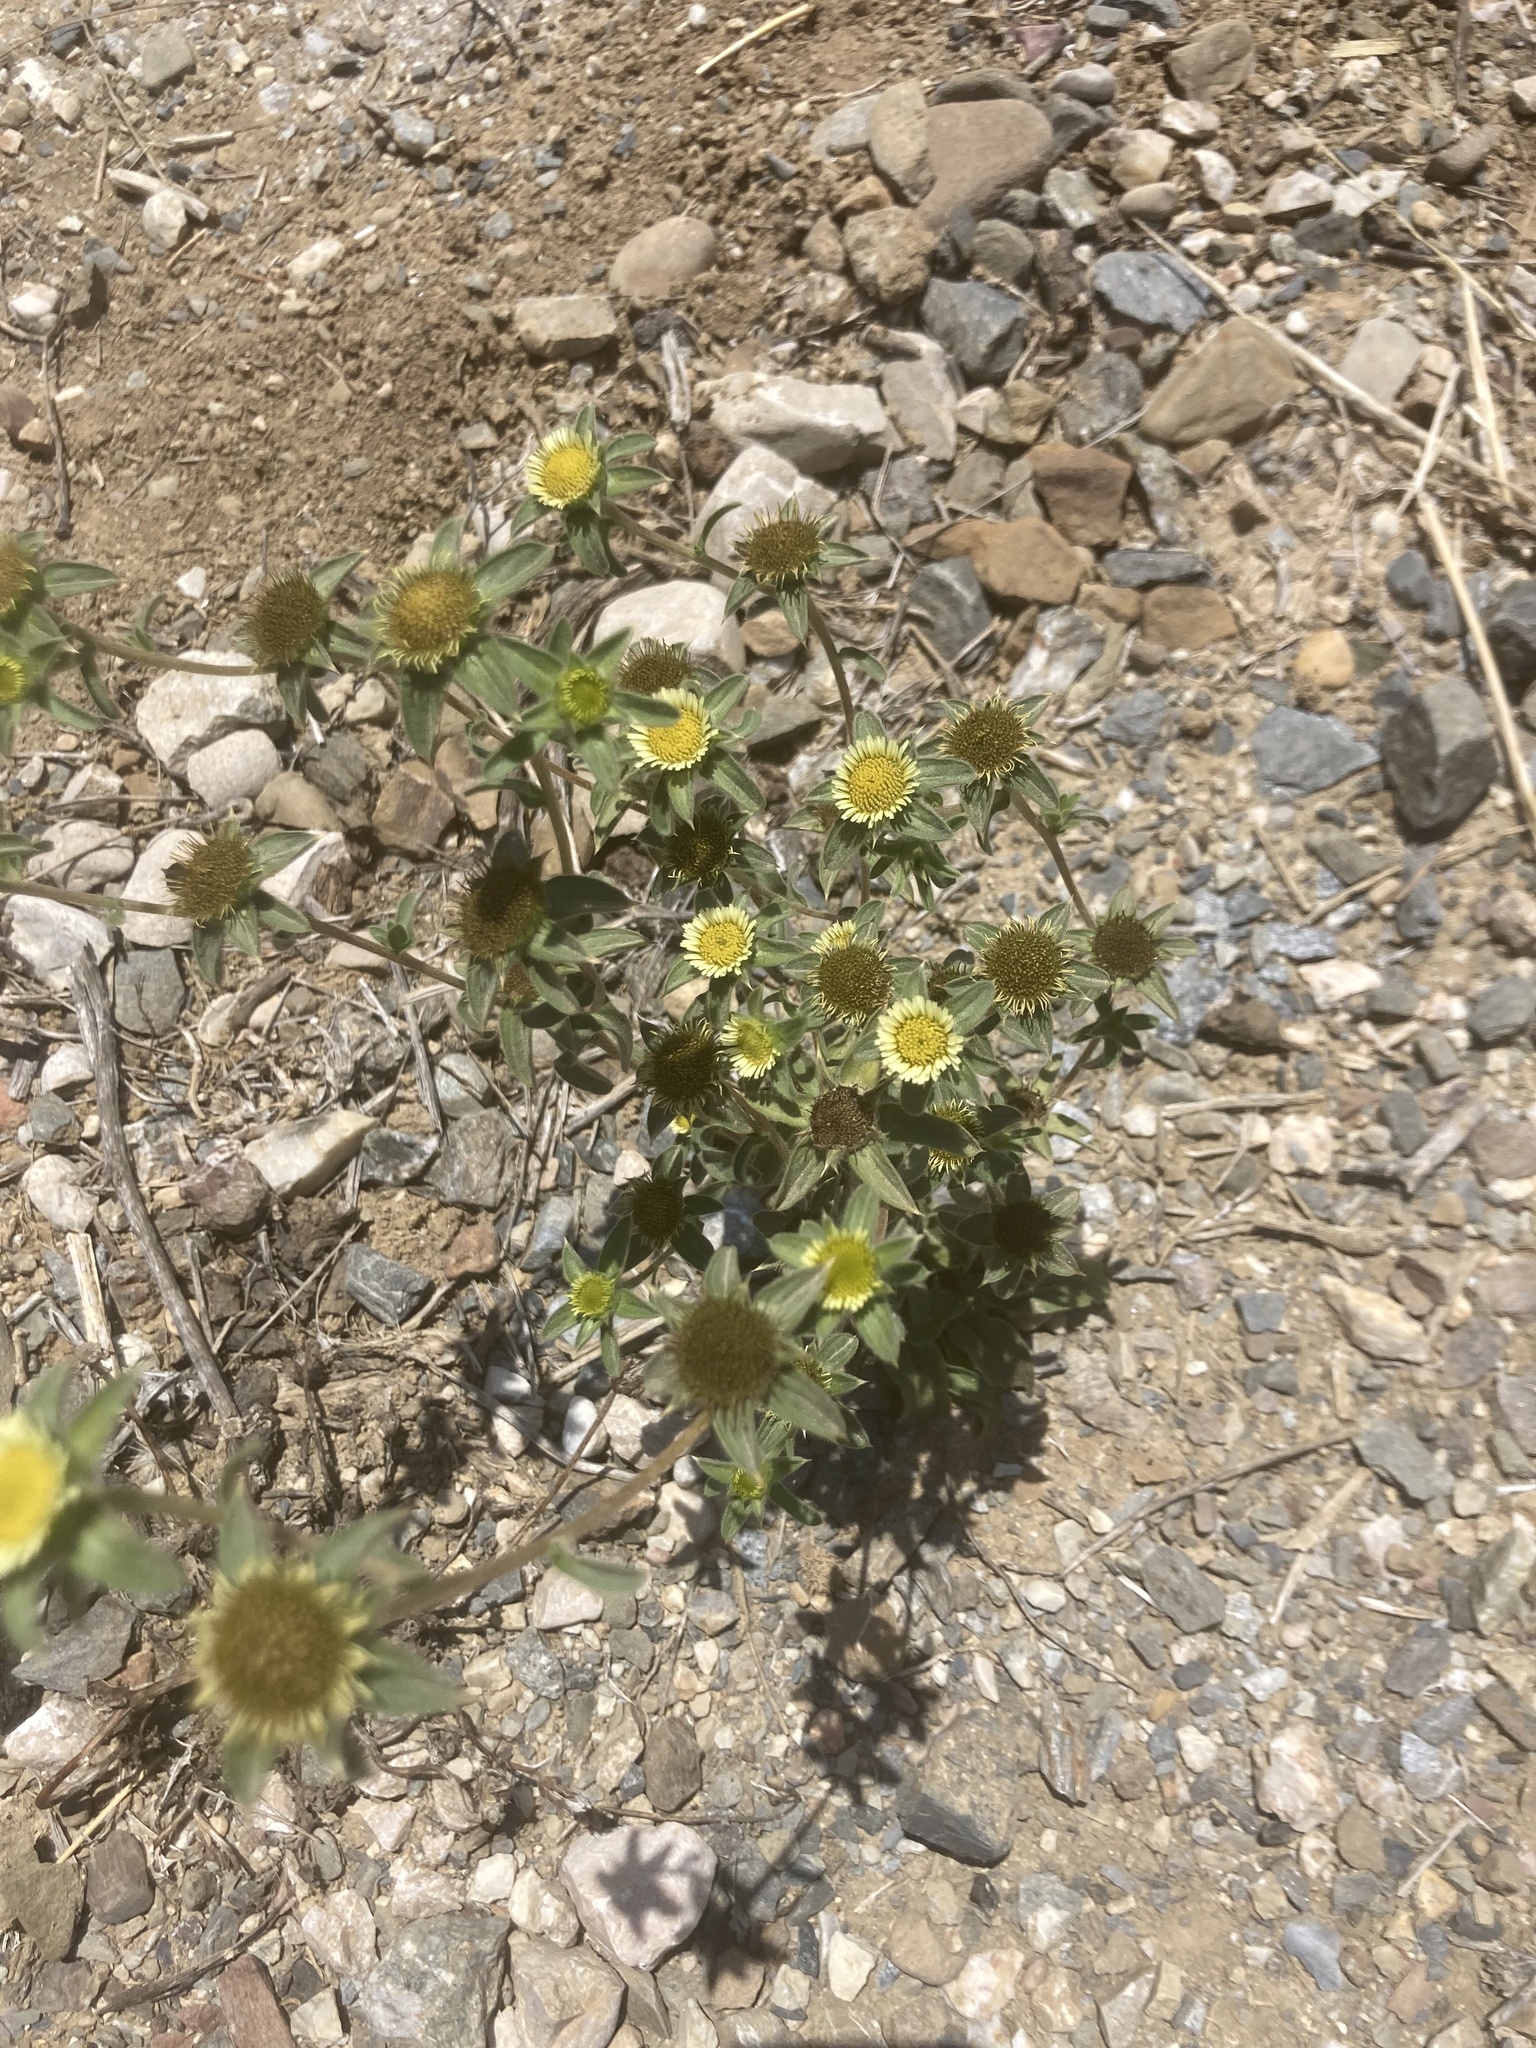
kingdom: Plantae
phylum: Tracheophyta
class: Magnoliopsida
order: Asterales
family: Asteraceae
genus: Pallenis
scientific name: Pallenis spinosa
